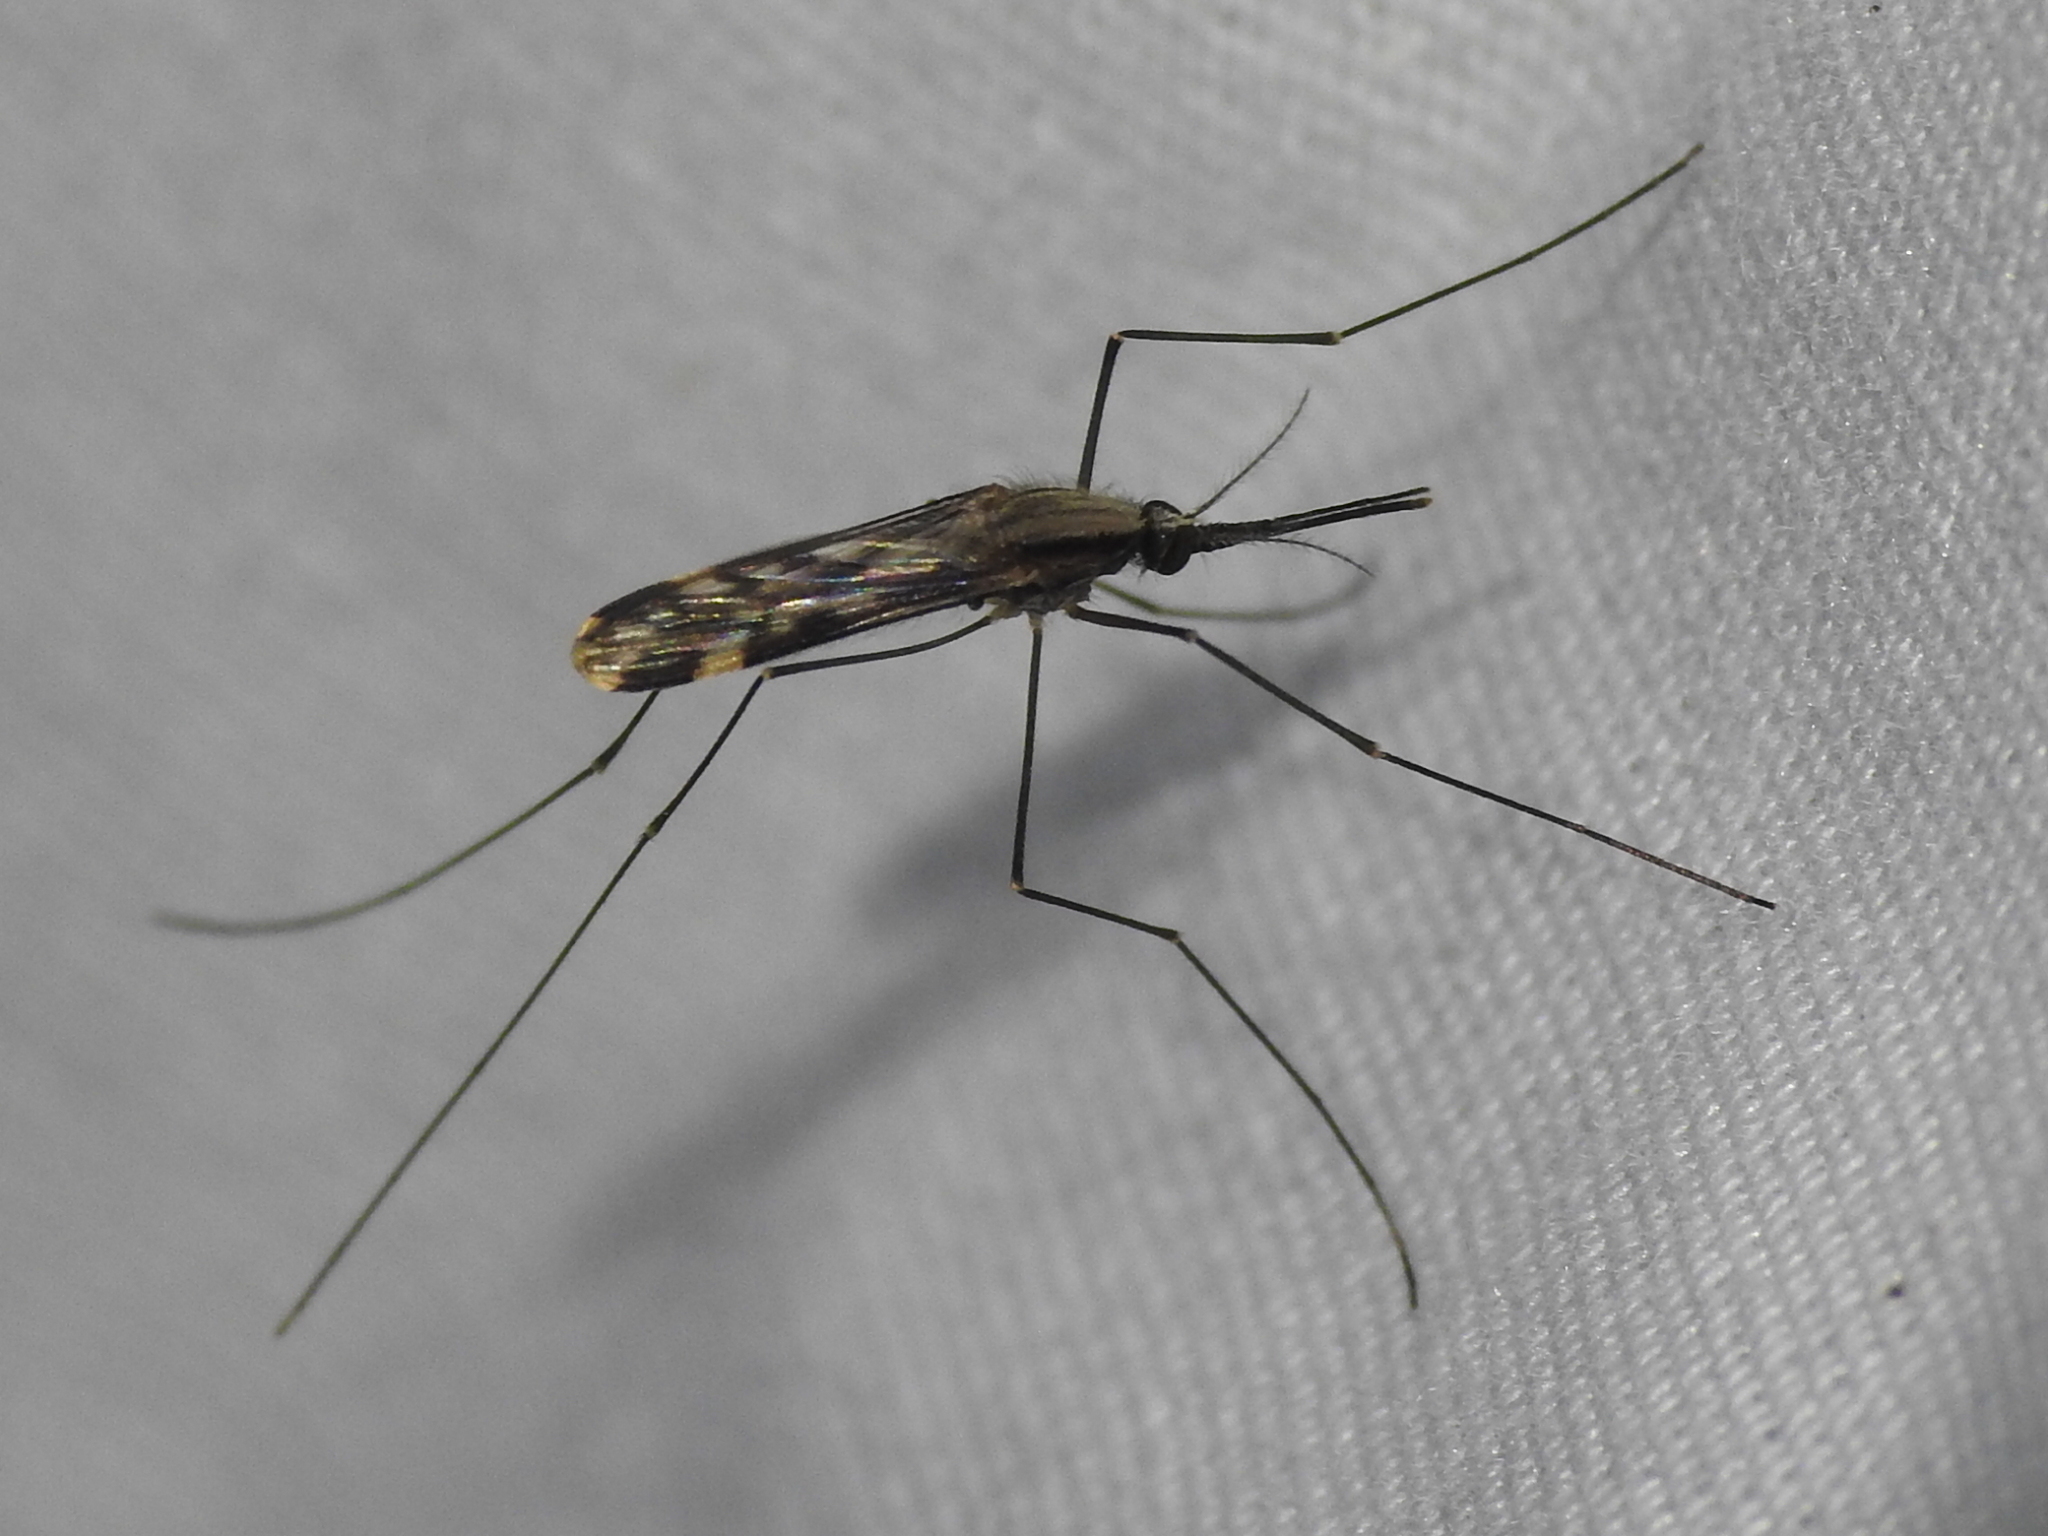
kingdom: Animalia
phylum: Arthropoda
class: Insecta
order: Diptera
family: Culicidae
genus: Anopheles
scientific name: Anopheles punctipennis
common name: Woodland malaria mosquito
